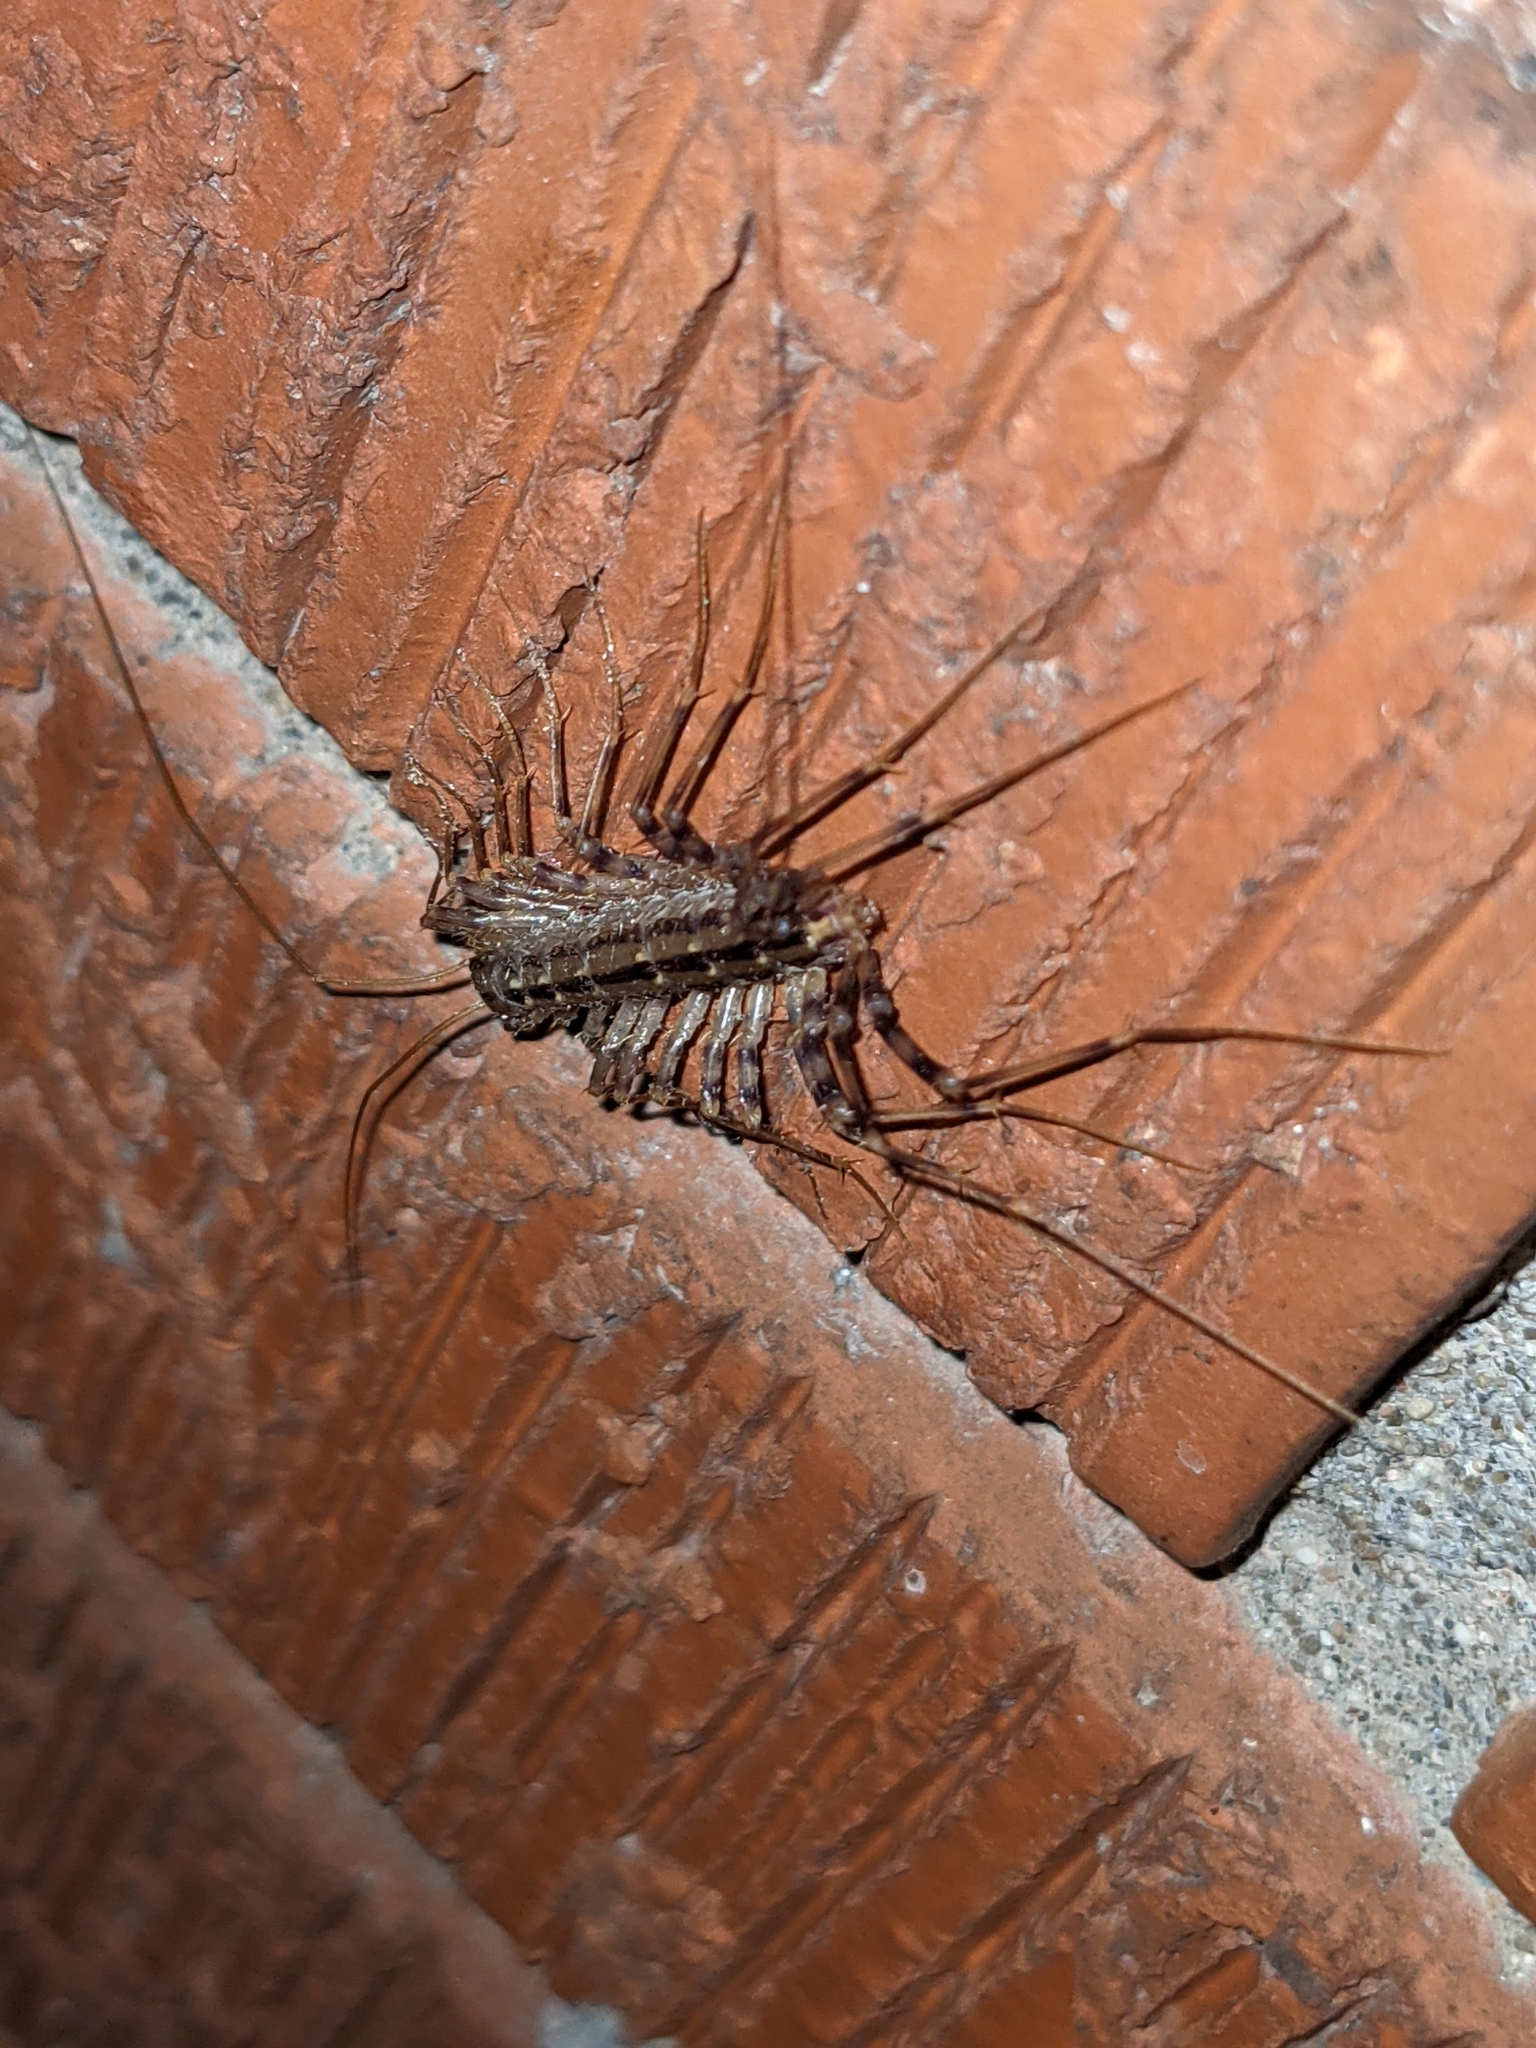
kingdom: Animalia
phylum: Arthropoda
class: Chilopoda
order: Scutigeromorpha
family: Scutigeridae
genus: Scutigera
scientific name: Scutigera coleoptrata
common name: House centipede
